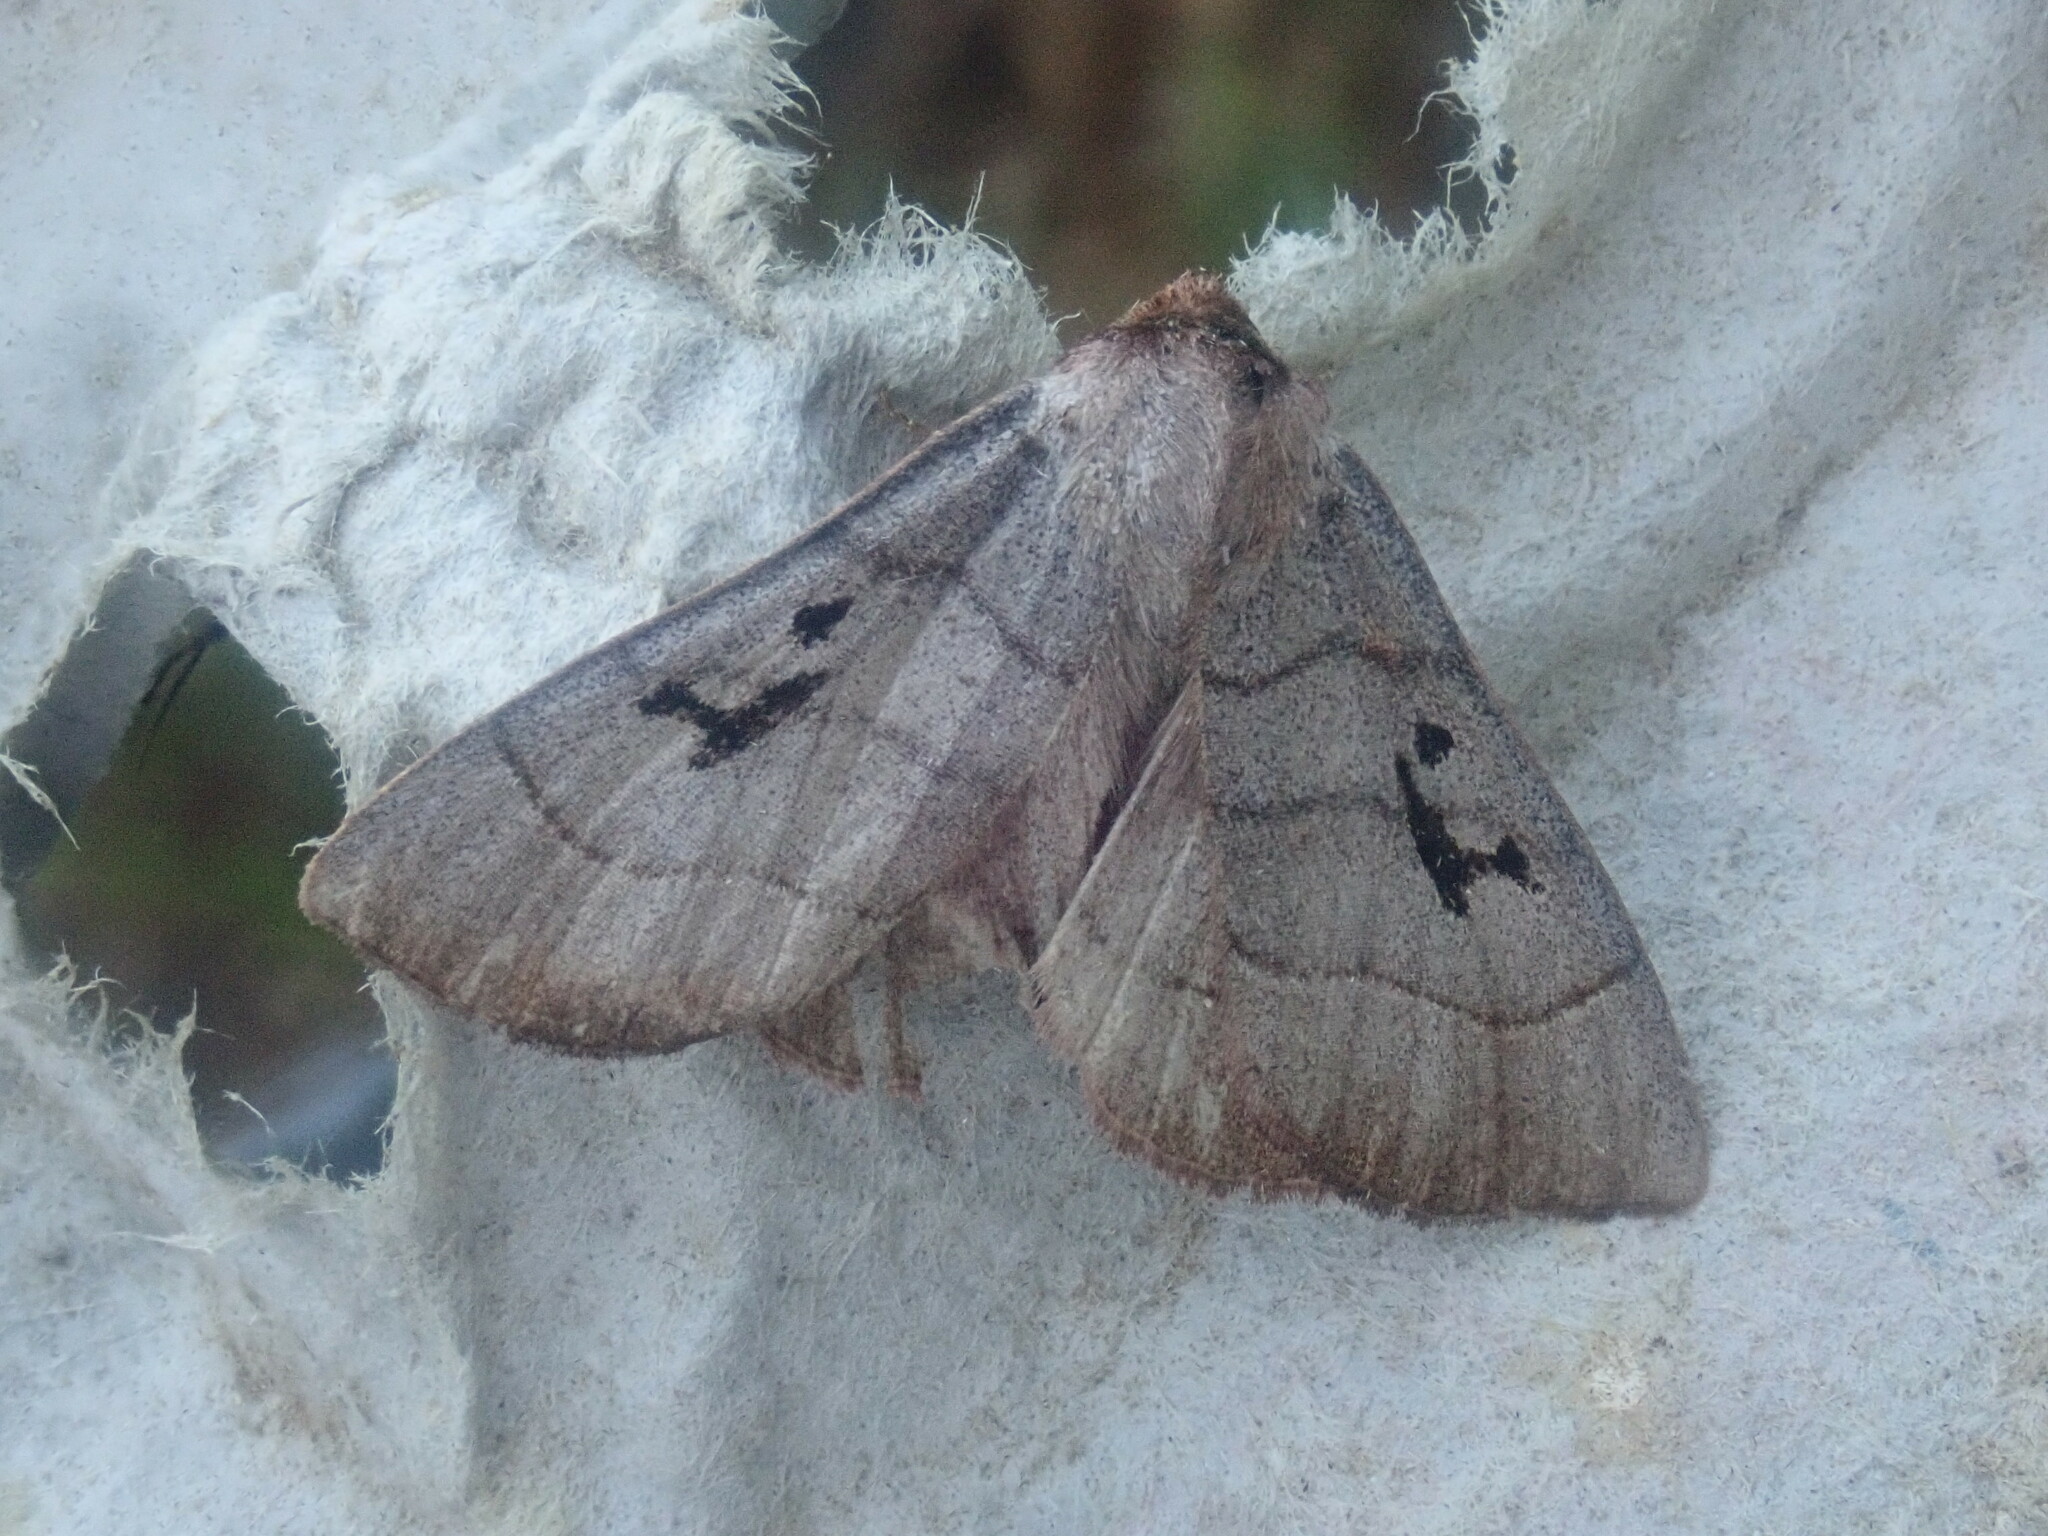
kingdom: Animalia
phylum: Arthropoda
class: Insecta
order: Lepidoptera
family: Erebidae
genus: Panopoda
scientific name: Panopoda carneicosta
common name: Brown panopoda moth
